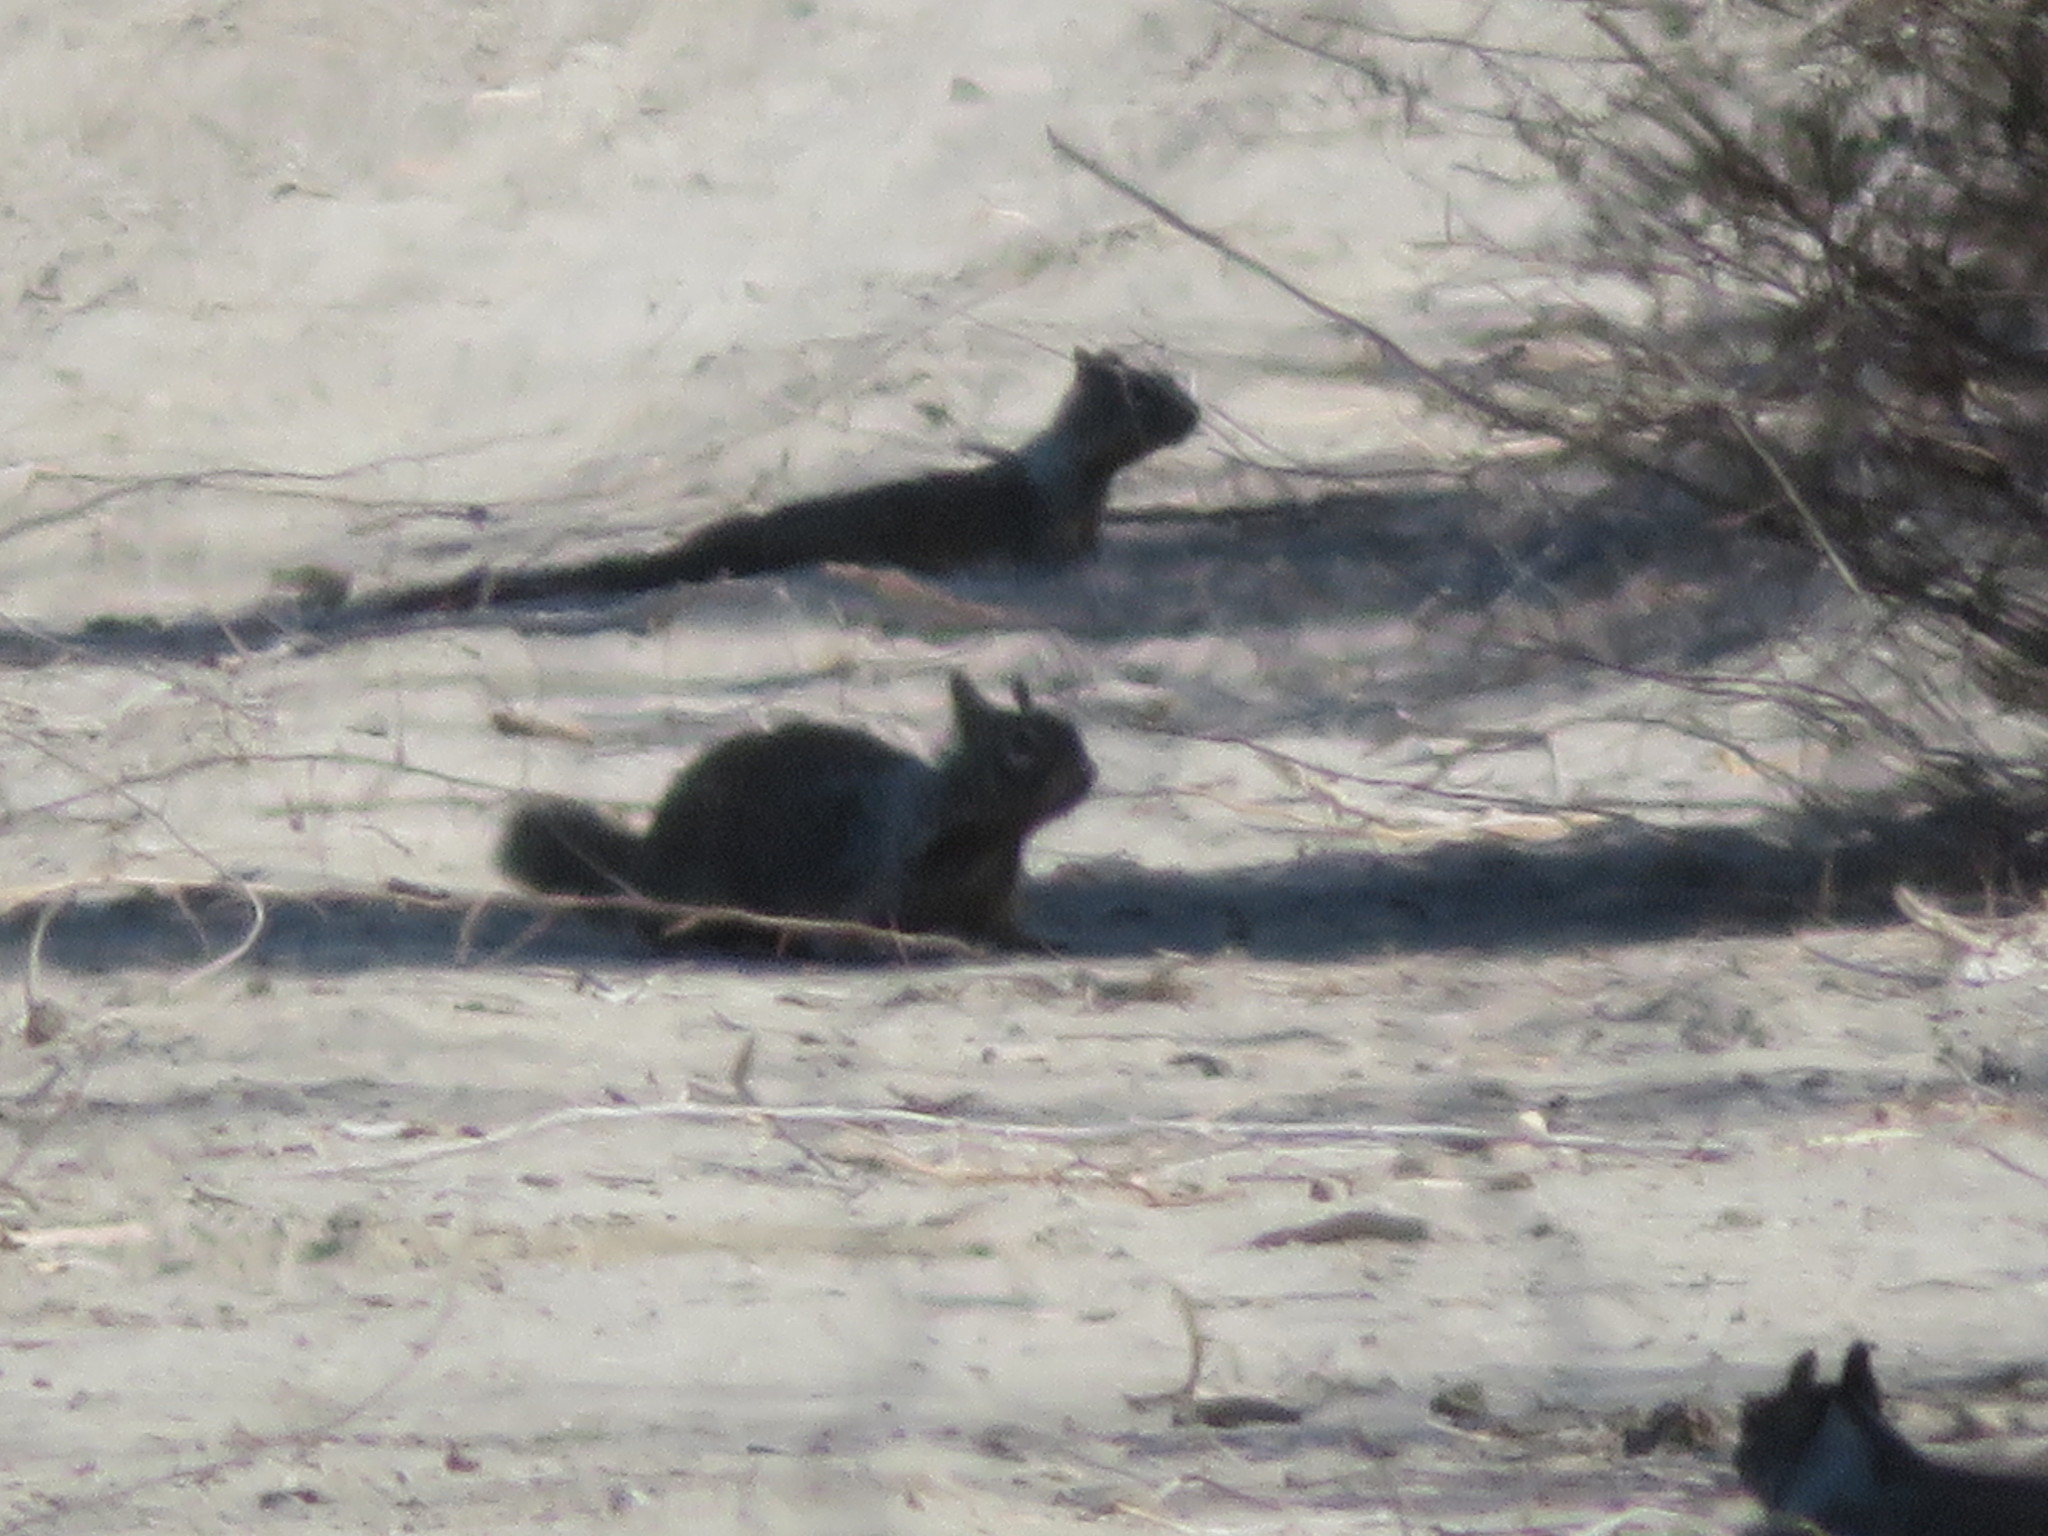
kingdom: Animalia
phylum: Chordata
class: Mammalia
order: Rodentia
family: Sciuridae
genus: Otospermophilus
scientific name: Otospermophilus beecheyi
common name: California ground squirrel
